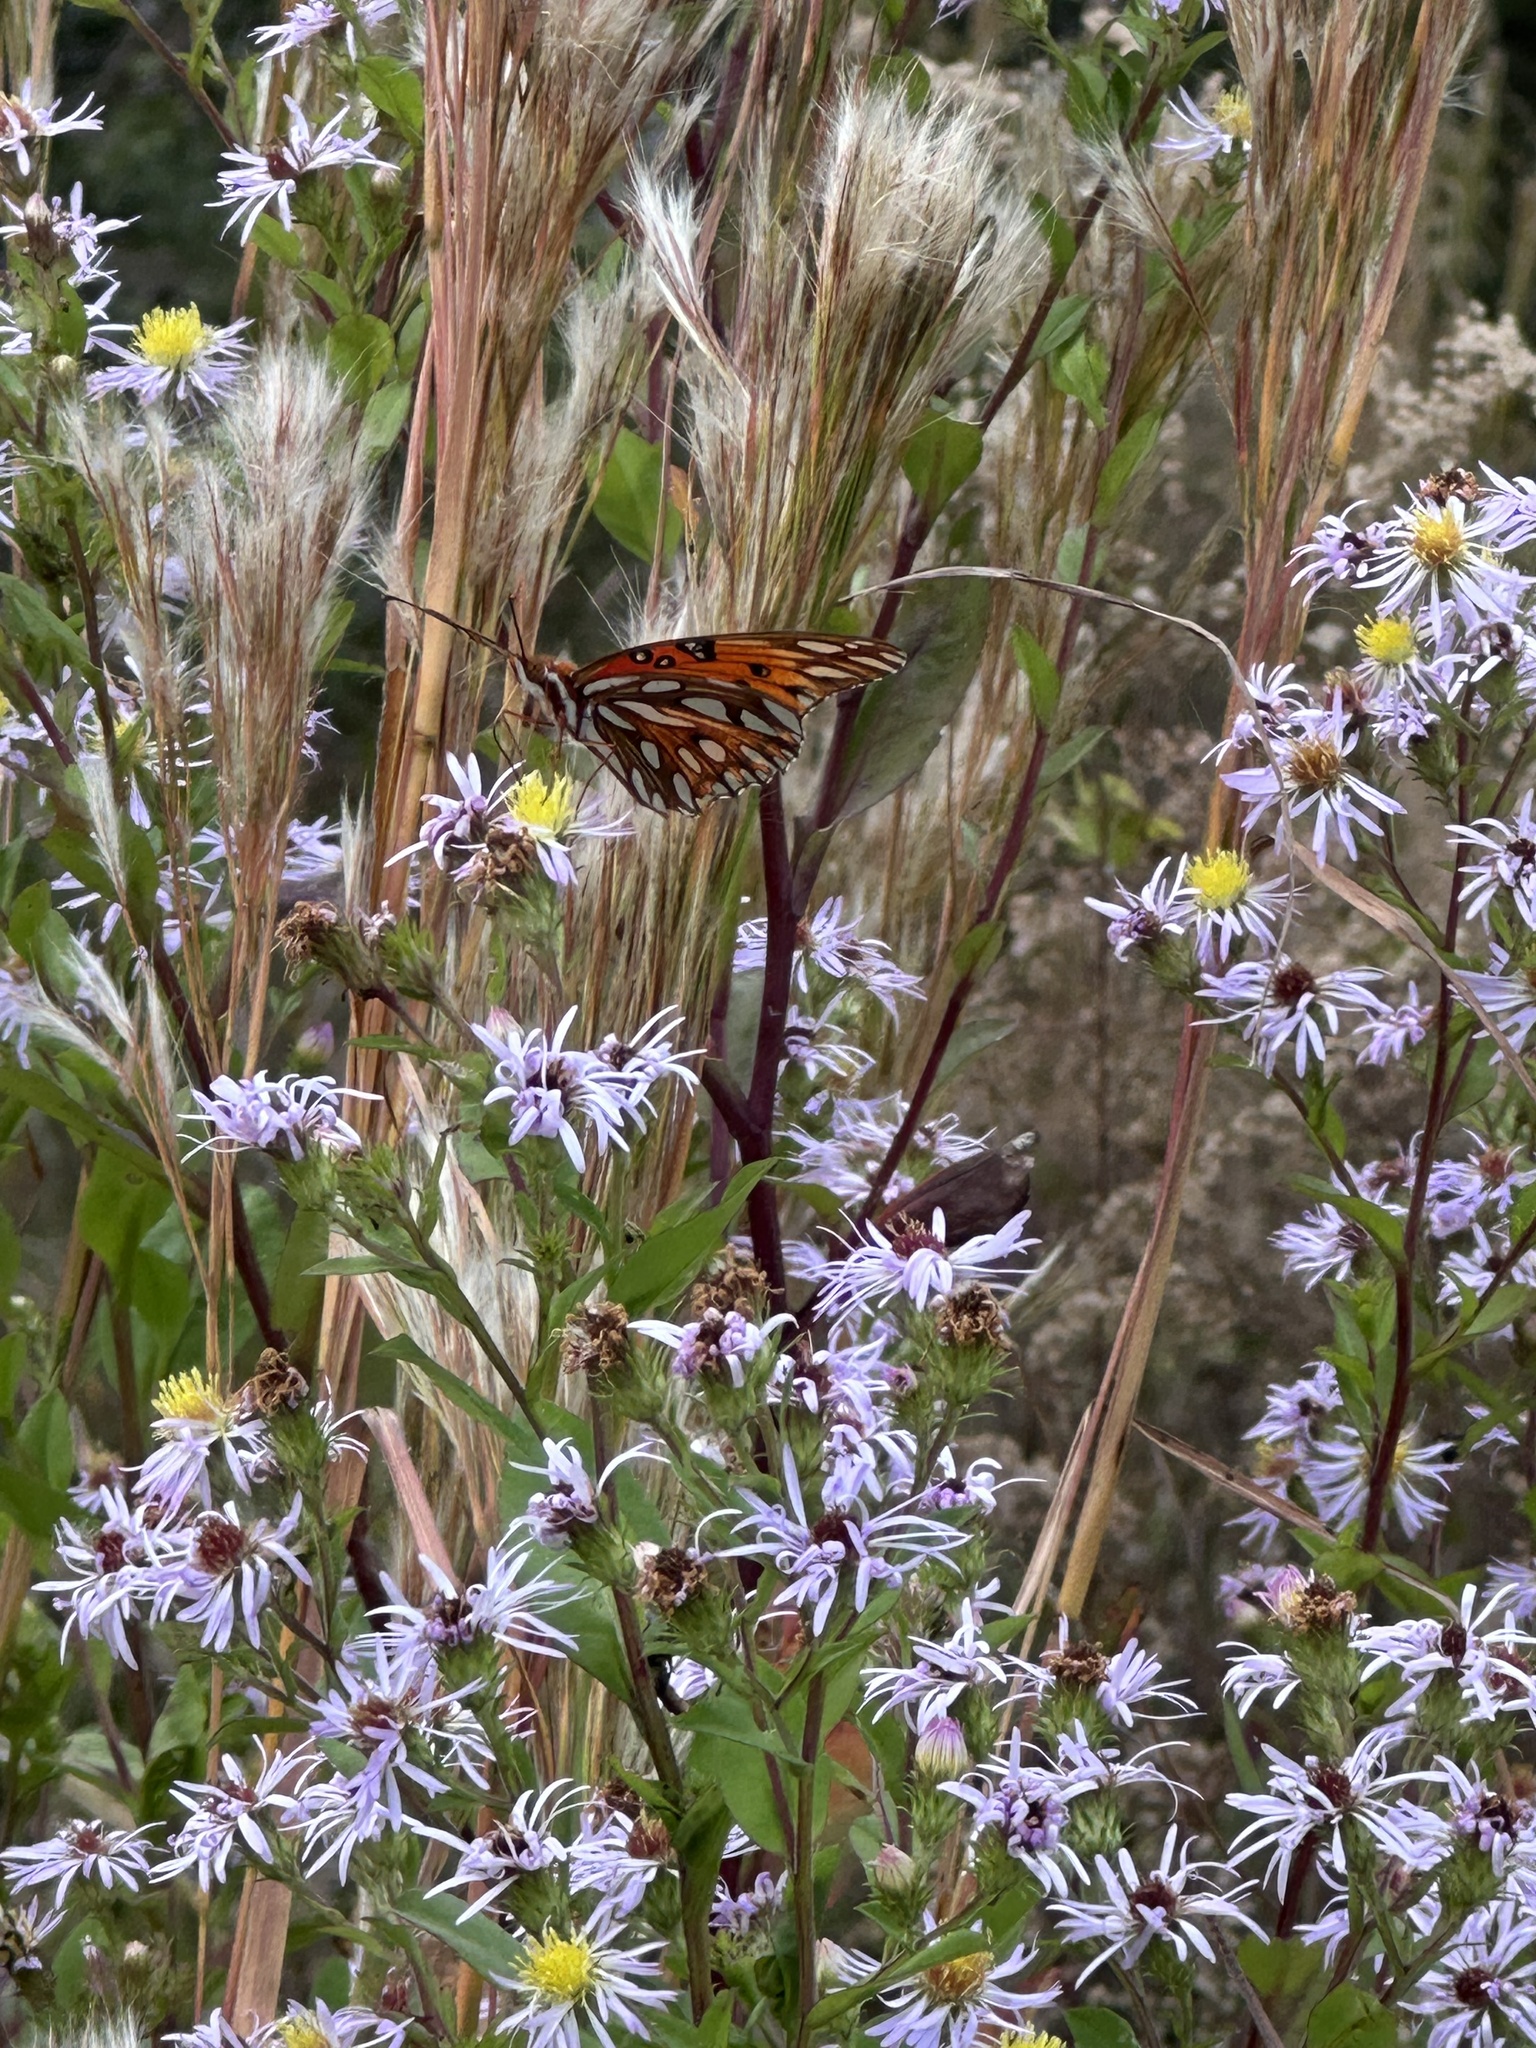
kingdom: Animalia
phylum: Arthropoda
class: Insecta
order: Lepidoptera
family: Nymphalidae
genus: Dione
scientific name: Dione vanillae
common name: Gulf fritillary
